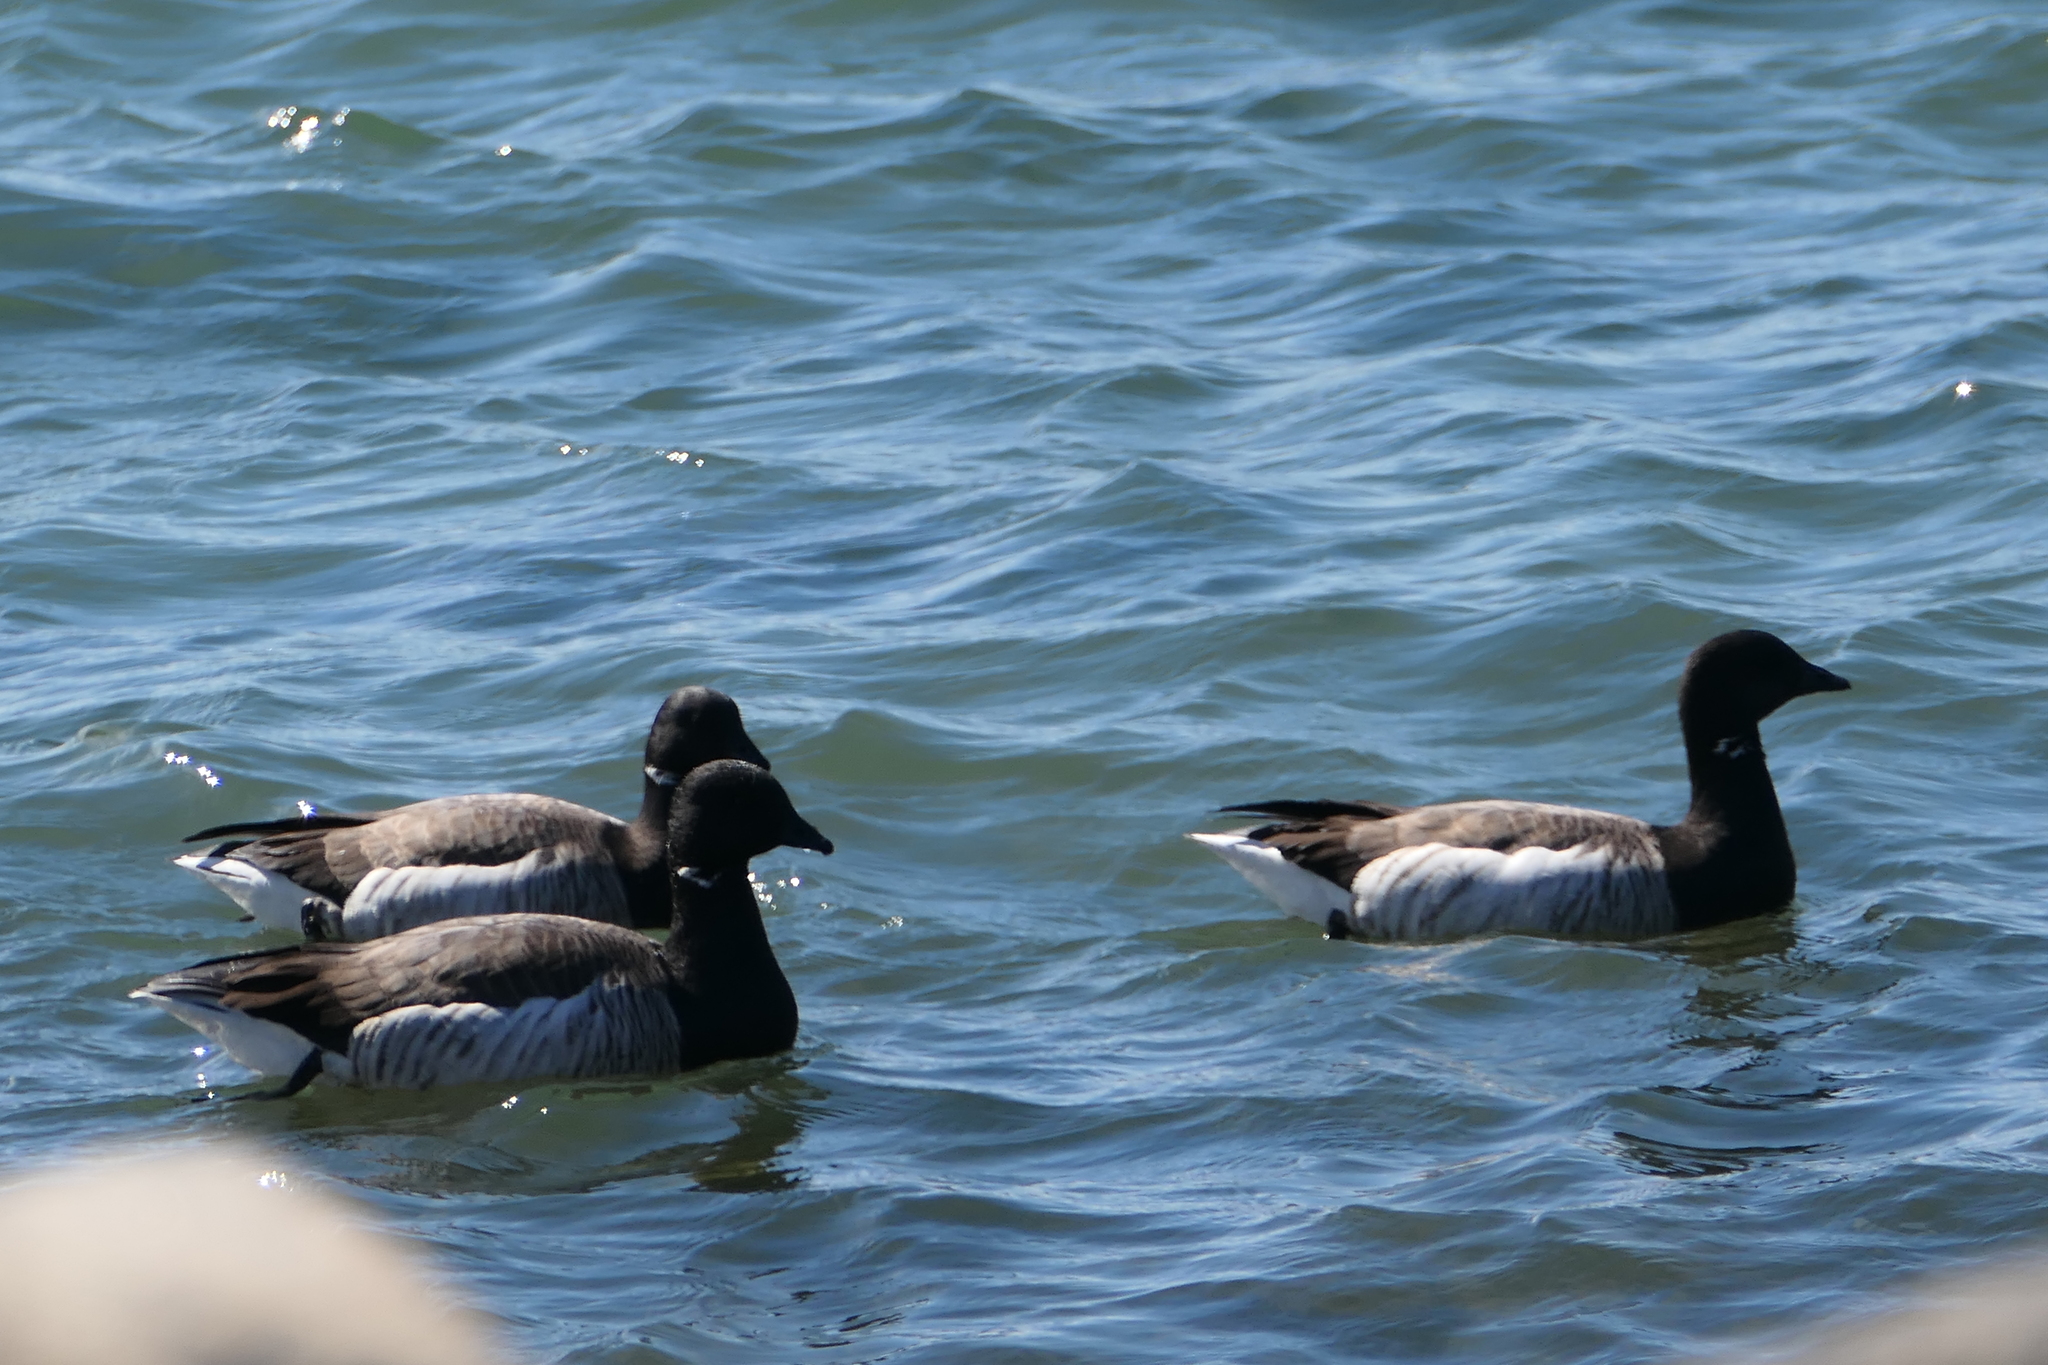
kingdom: Animalia
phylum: Chordata
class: Aves
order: Anseriformes
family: Anatidae
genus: Branta
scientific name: Branta bernicla
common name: Brant goose
